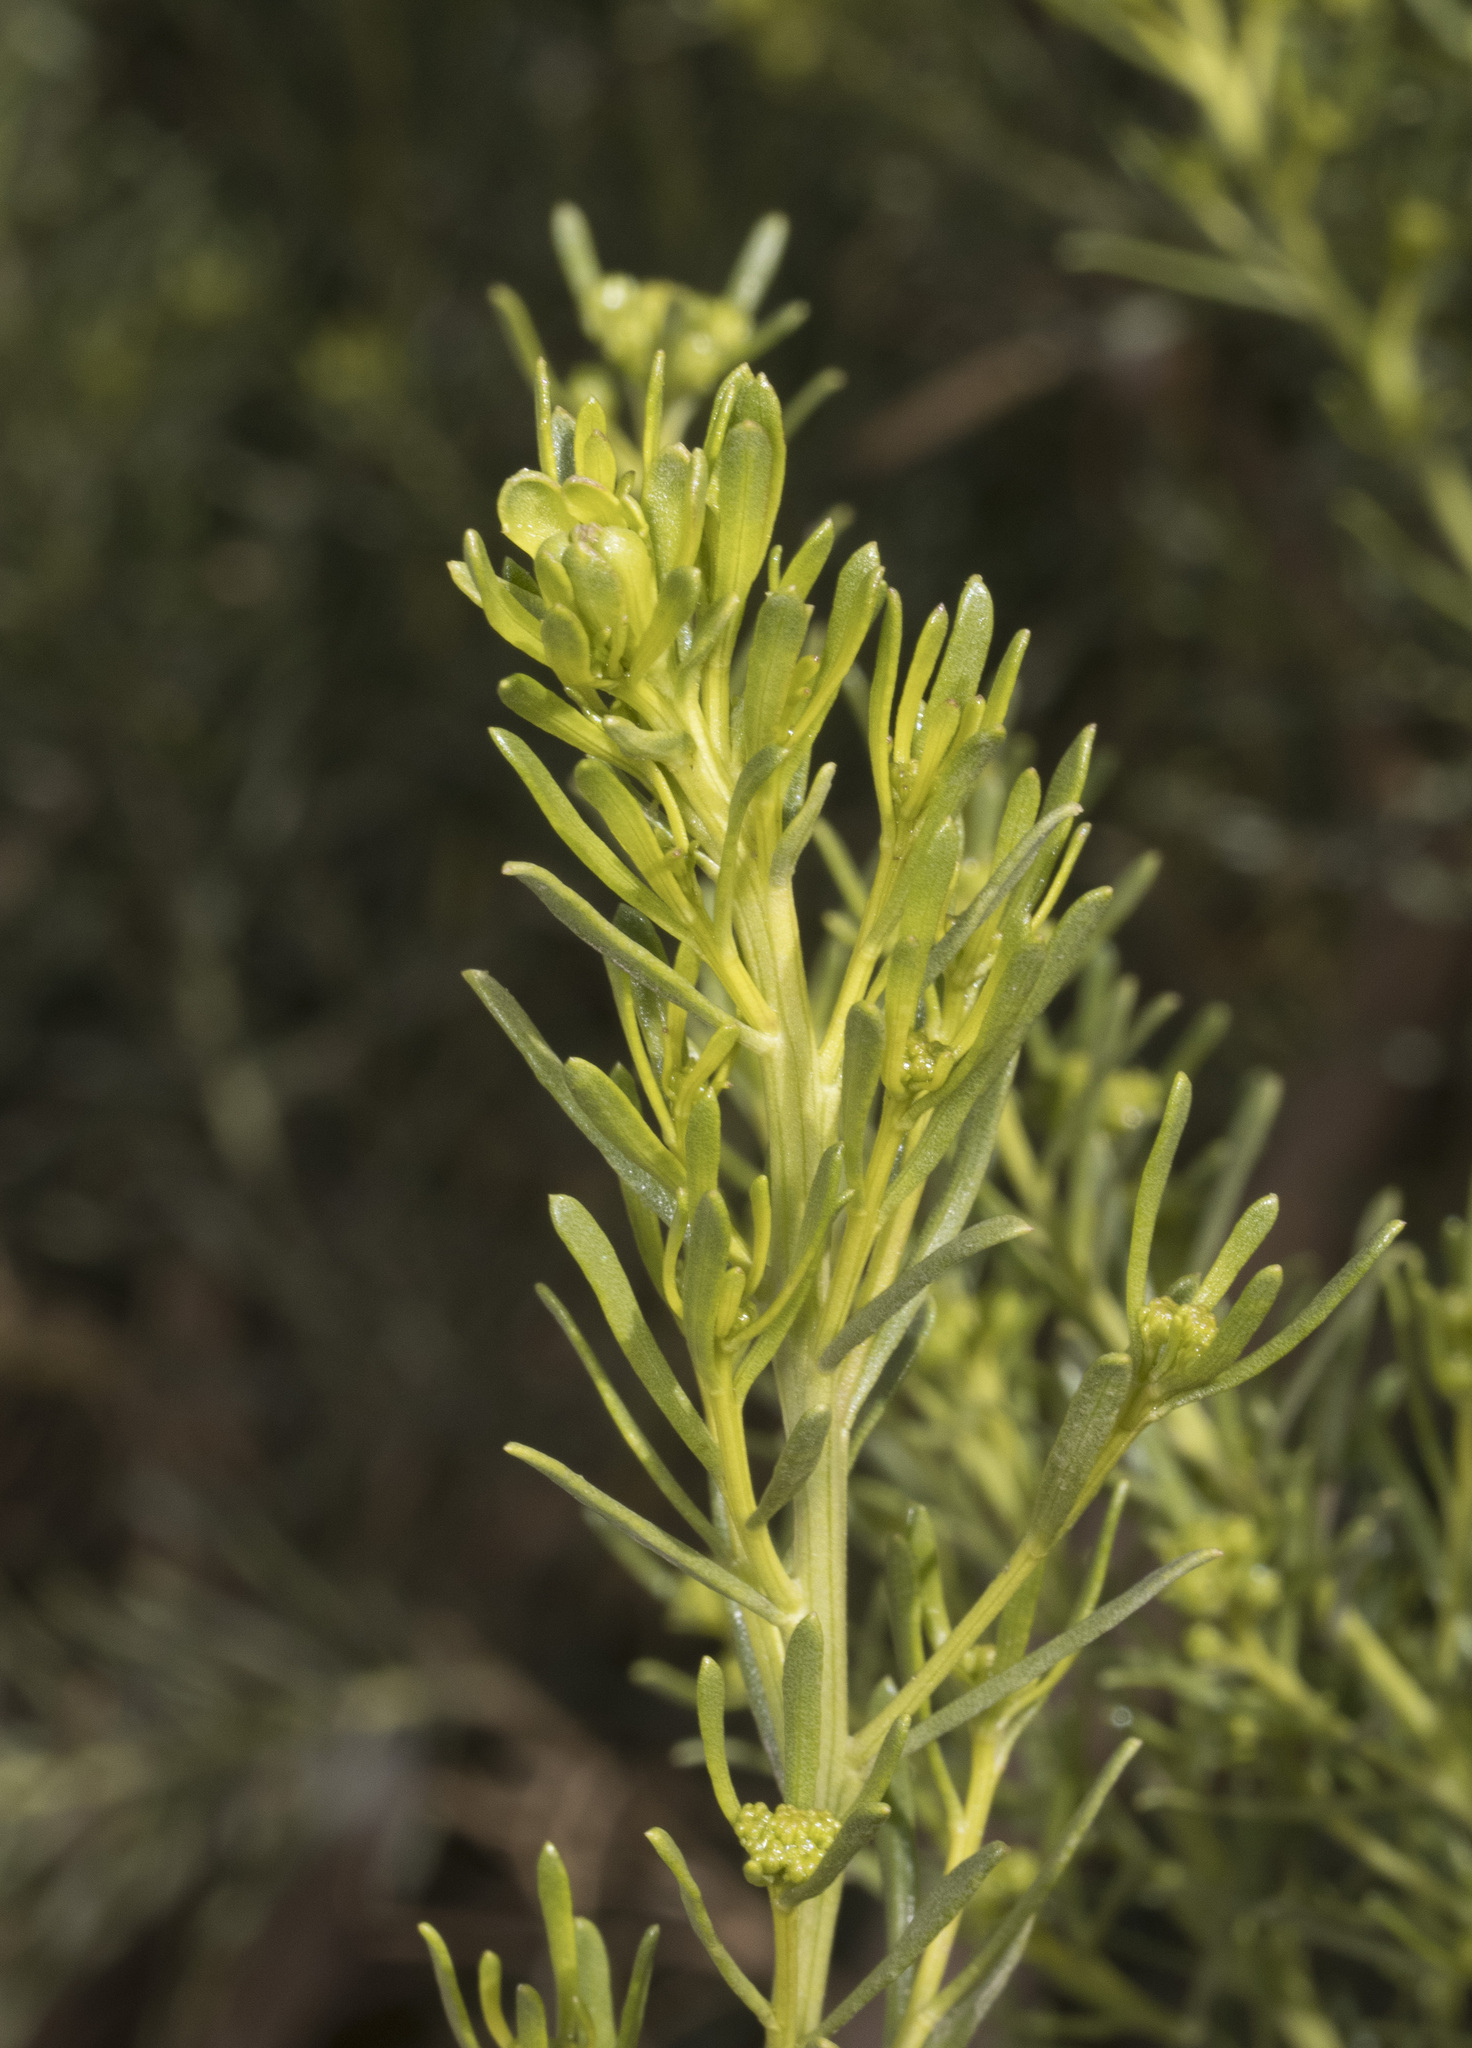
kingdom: Plantae
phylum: Tracheophyta
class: Magnoliopsida
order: Asterales
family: Asteraceae
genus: Baccharis
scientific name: Baccharis linearis
